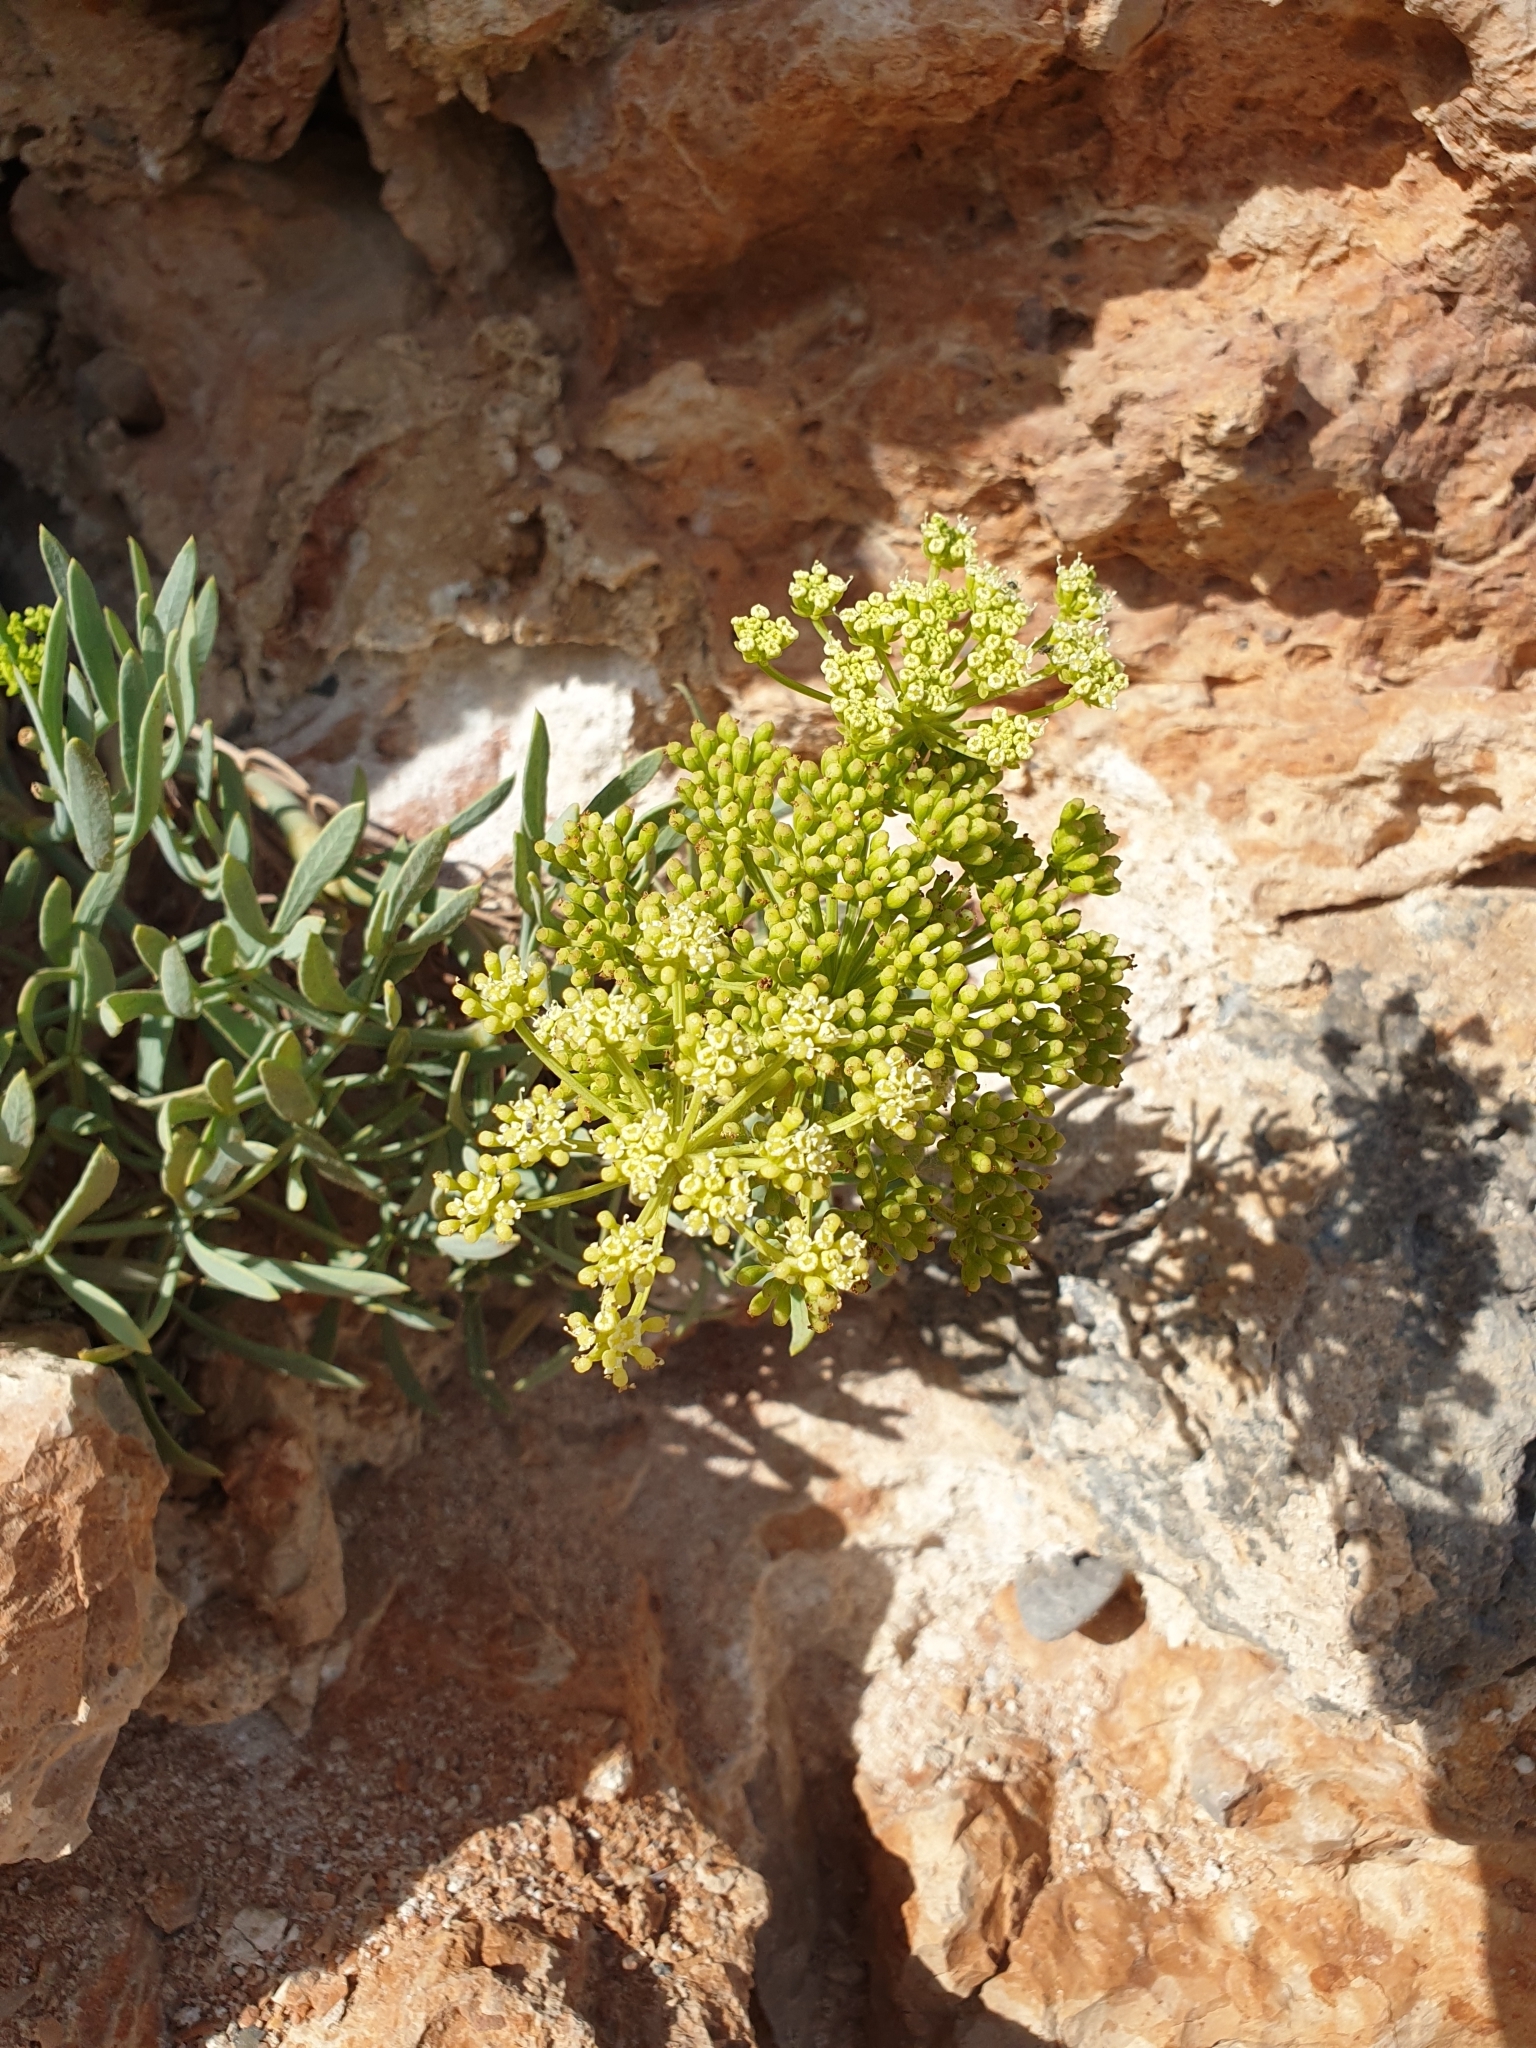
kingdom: Plantae
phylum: Tracheophyta
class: Magnoliopsida
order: Apiales
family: Apiaceae
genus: Crithmum
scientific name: Crithmum maritimum
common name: Rock samphire
